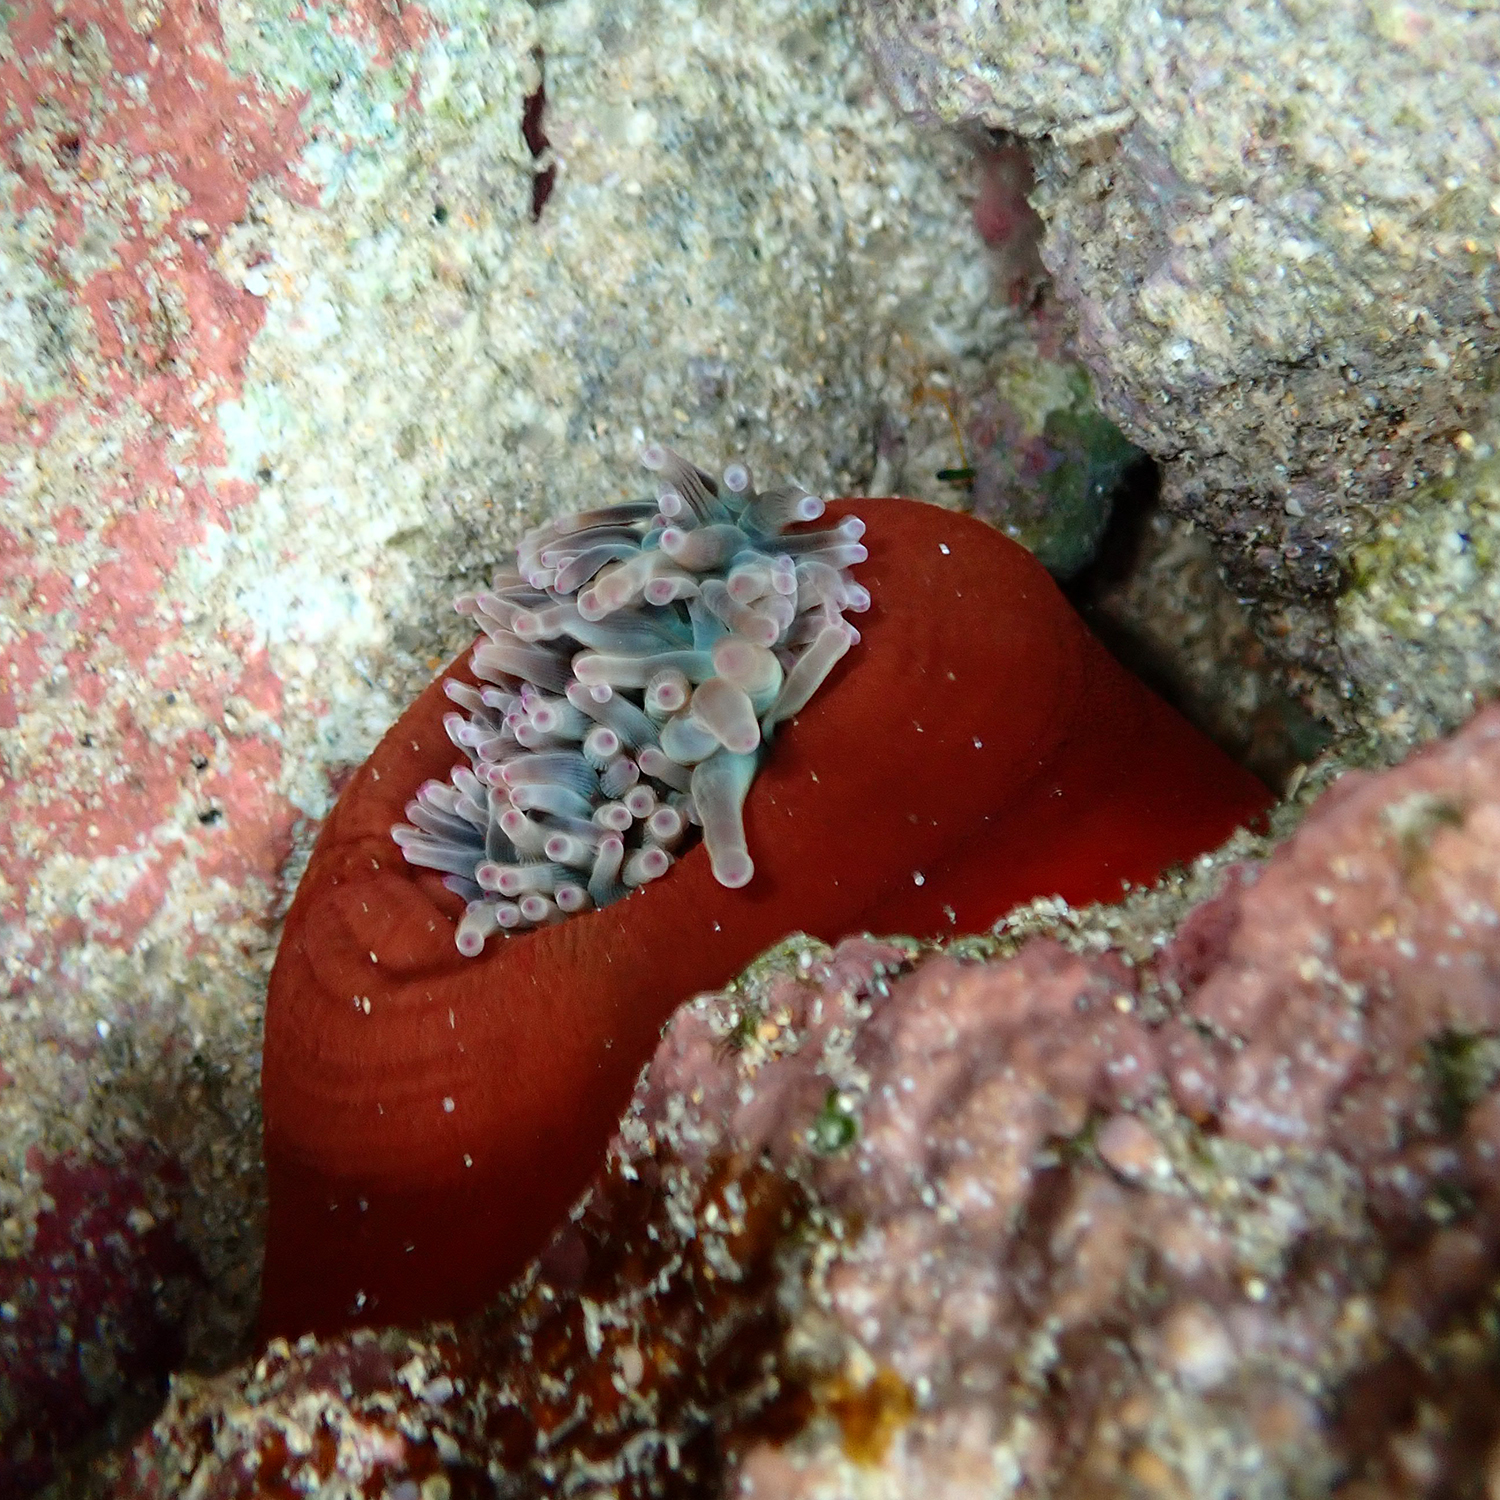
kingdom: Animalia
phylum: Cnidaria
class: Anthozoa
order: Actiniaria
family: Actiniidae
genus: Entacmaea
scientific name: Entacmaea quadricolor
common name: Bulb tentacle sea anemone
